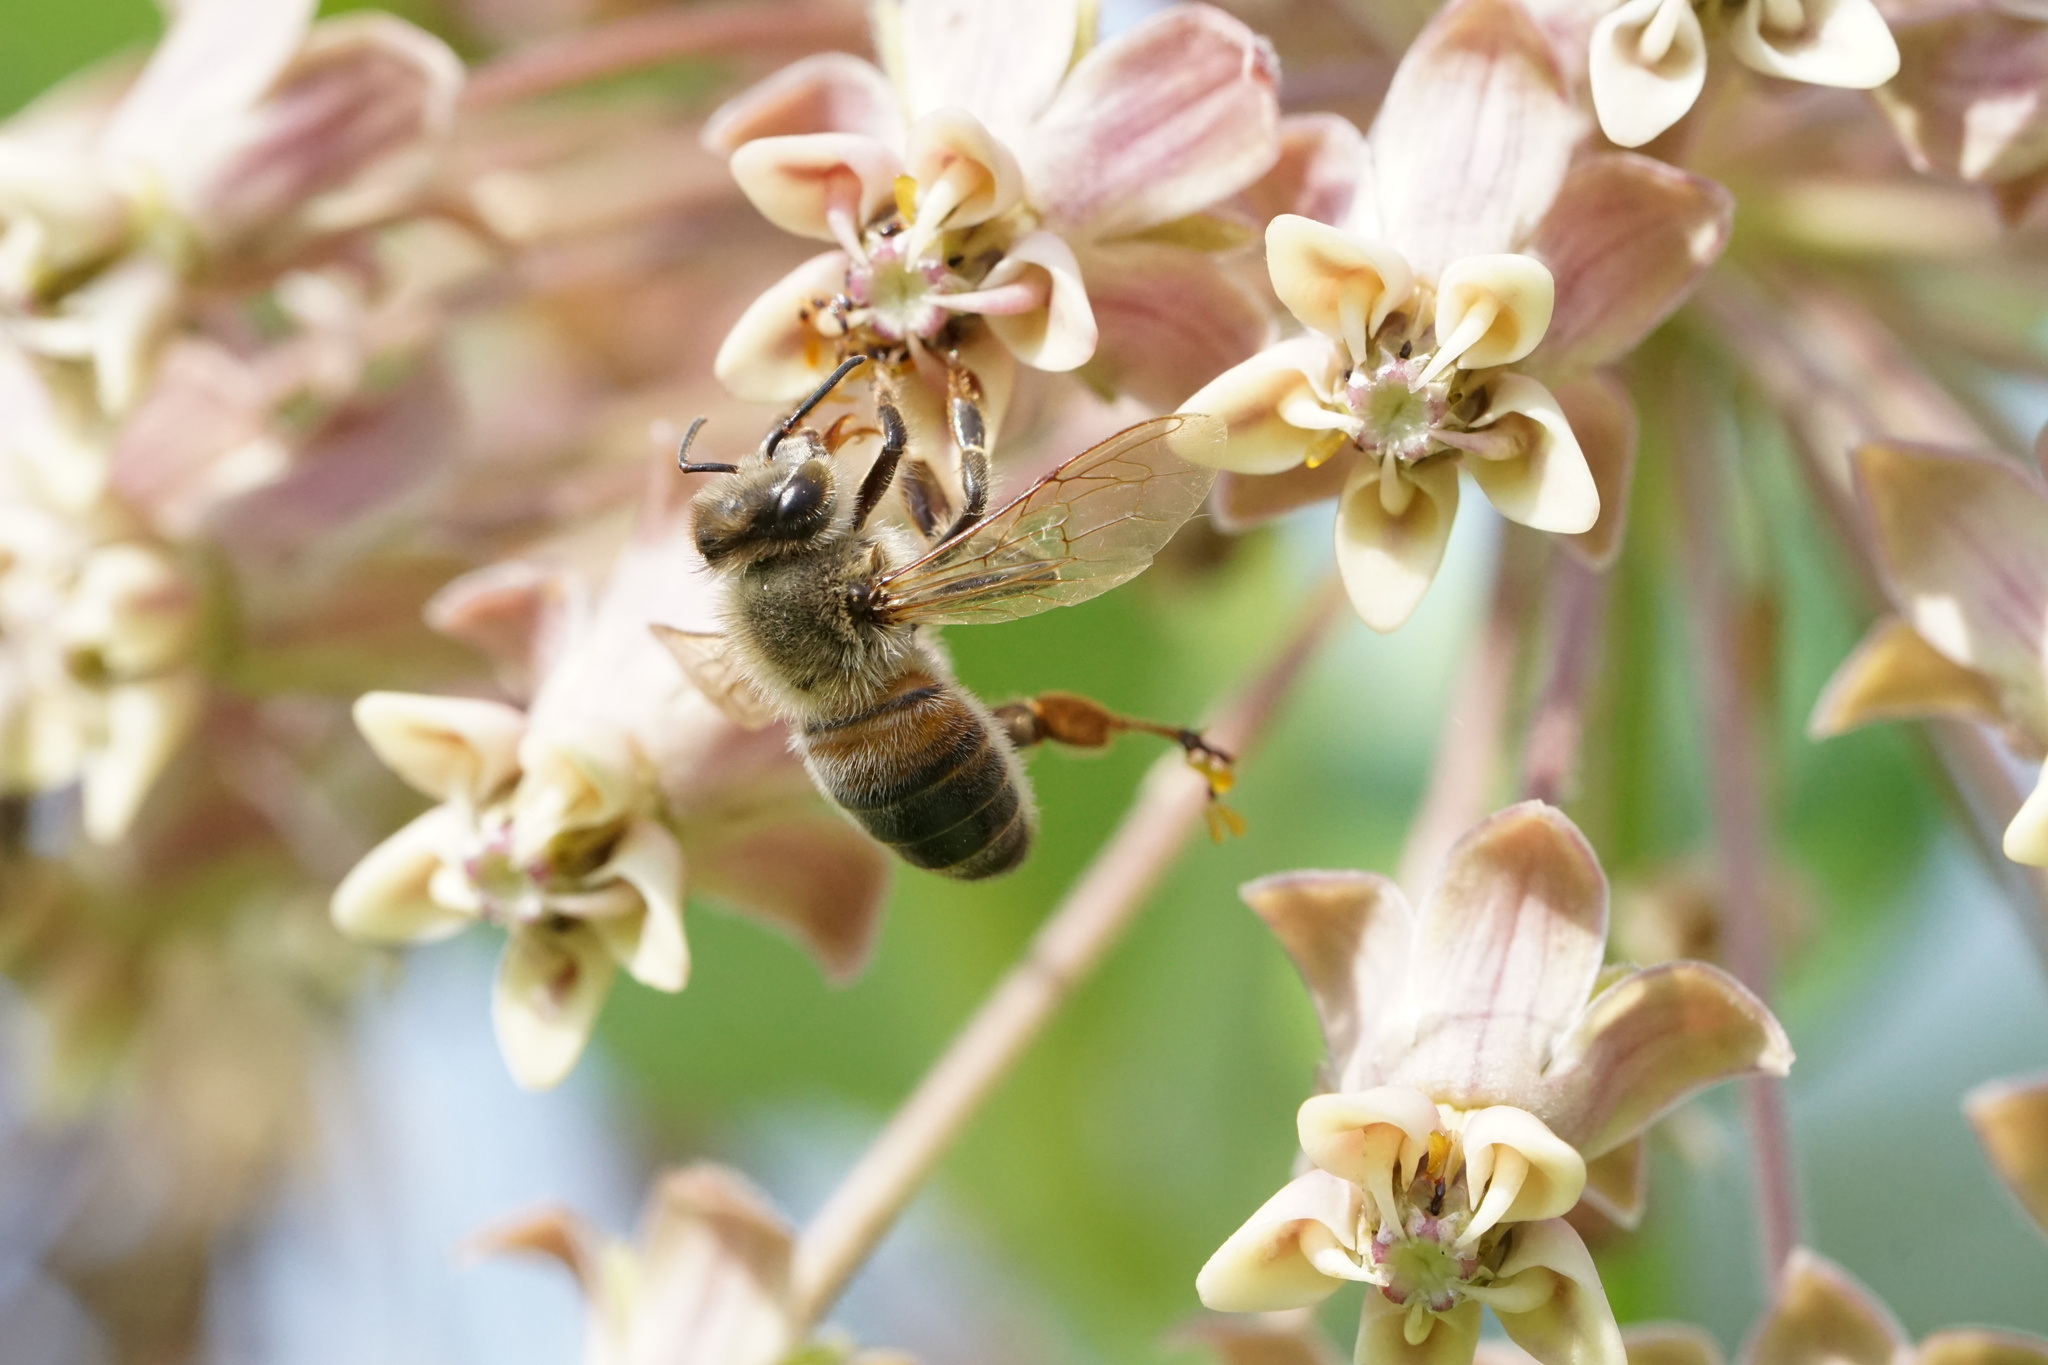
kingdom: Animalia
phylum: Arthropoda
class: Insecta
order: Hymenoptera
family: Apidae
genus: Apis
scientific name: Apis mellifera
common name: Honey bee
